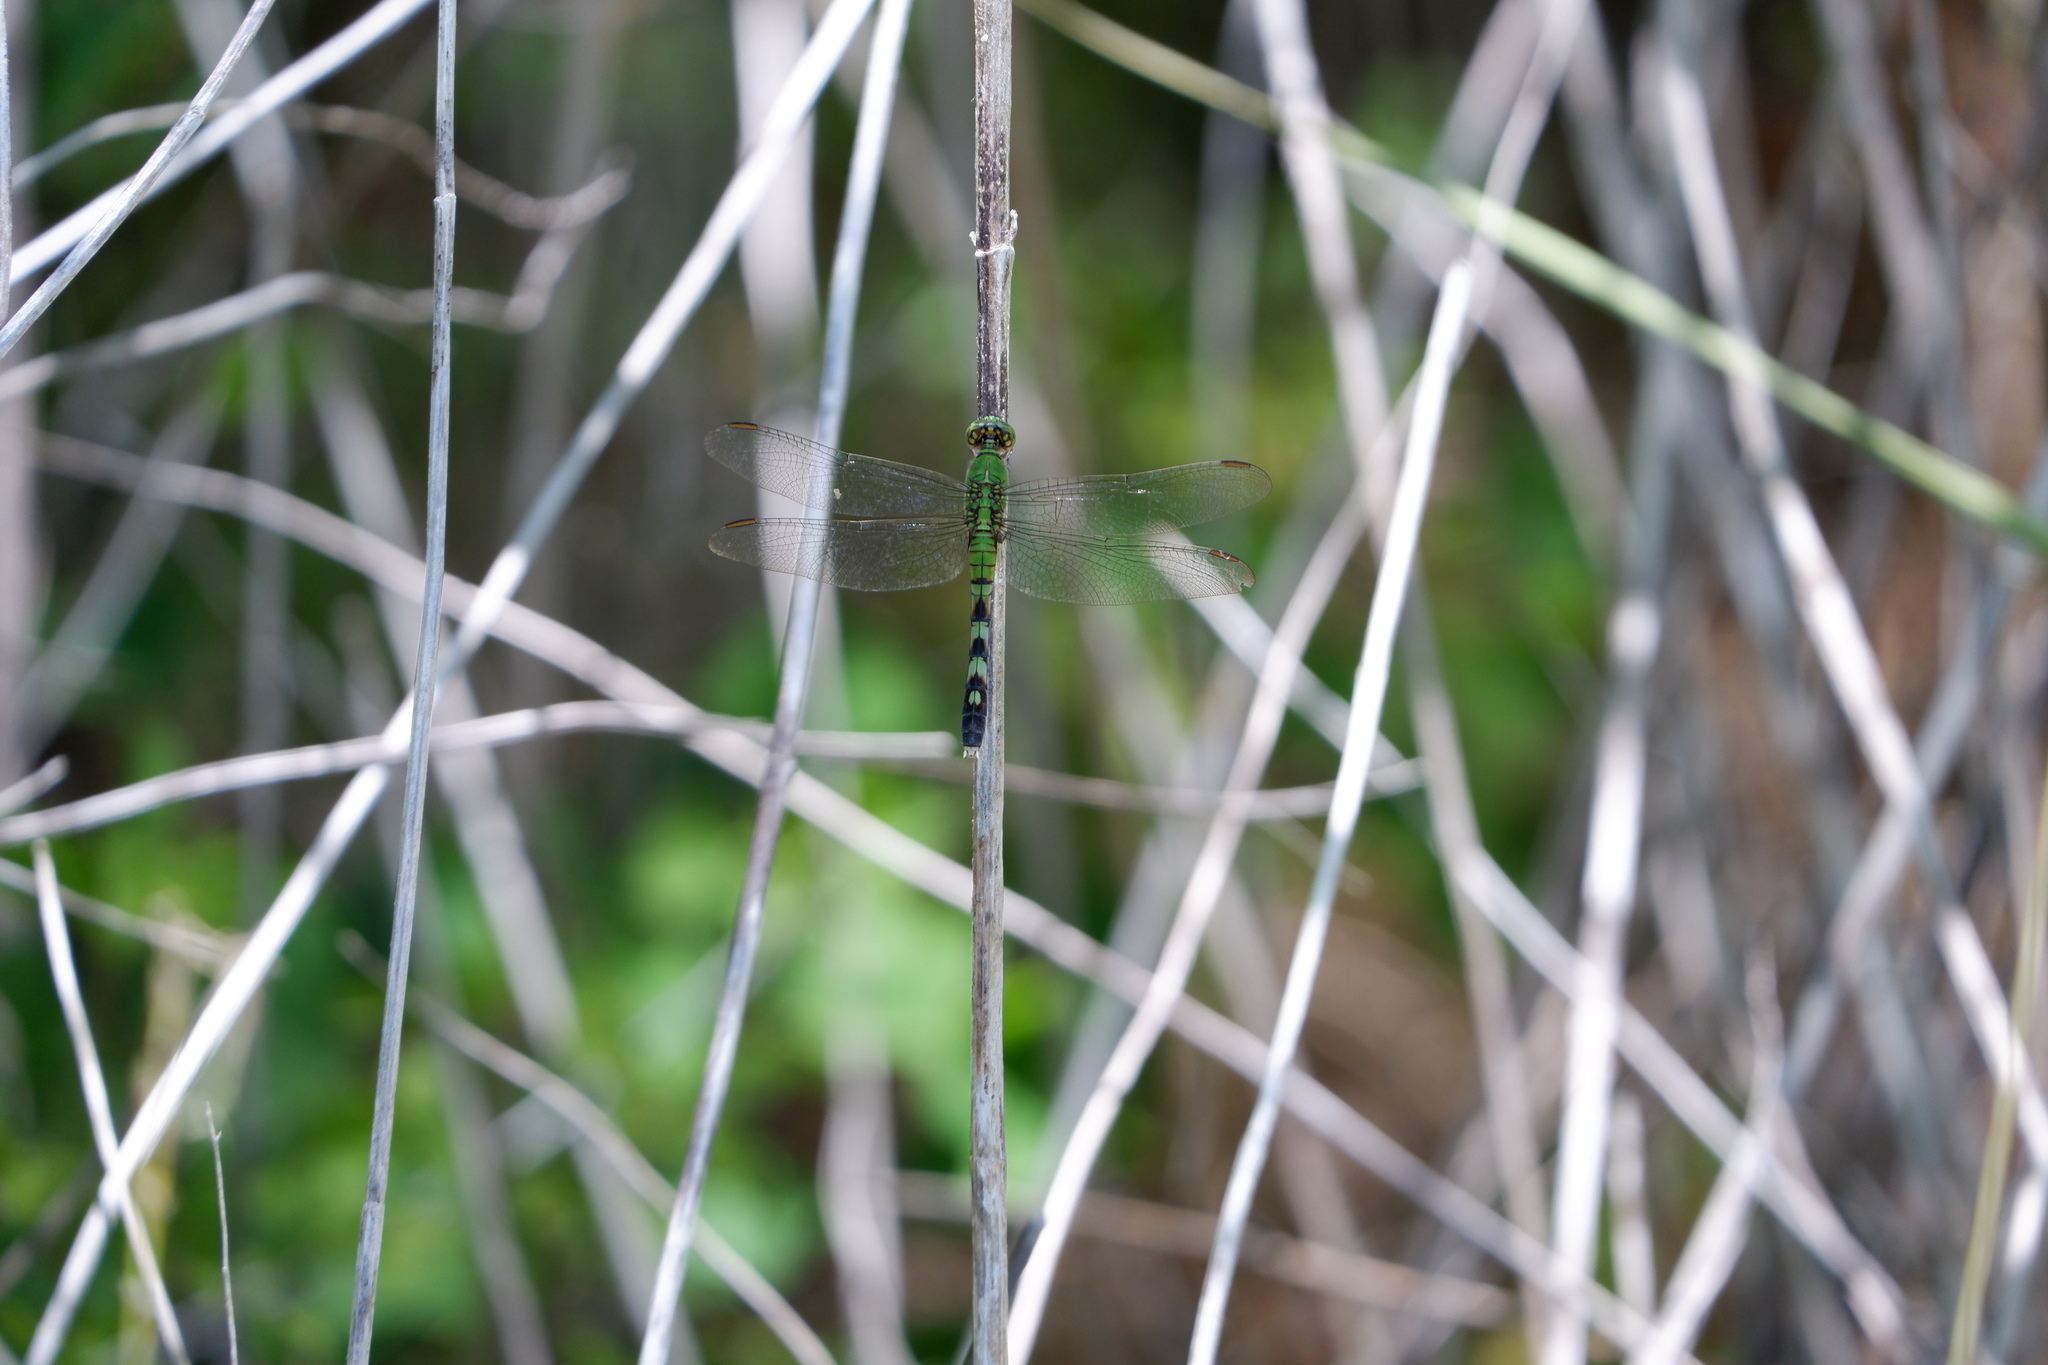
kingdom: Animalia
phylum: Arthropoda
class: Insecta
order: Odonata
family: Libellulidae
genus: Erythemis
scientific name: Erythemis simplicicollis
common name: Eastern pondhawk
